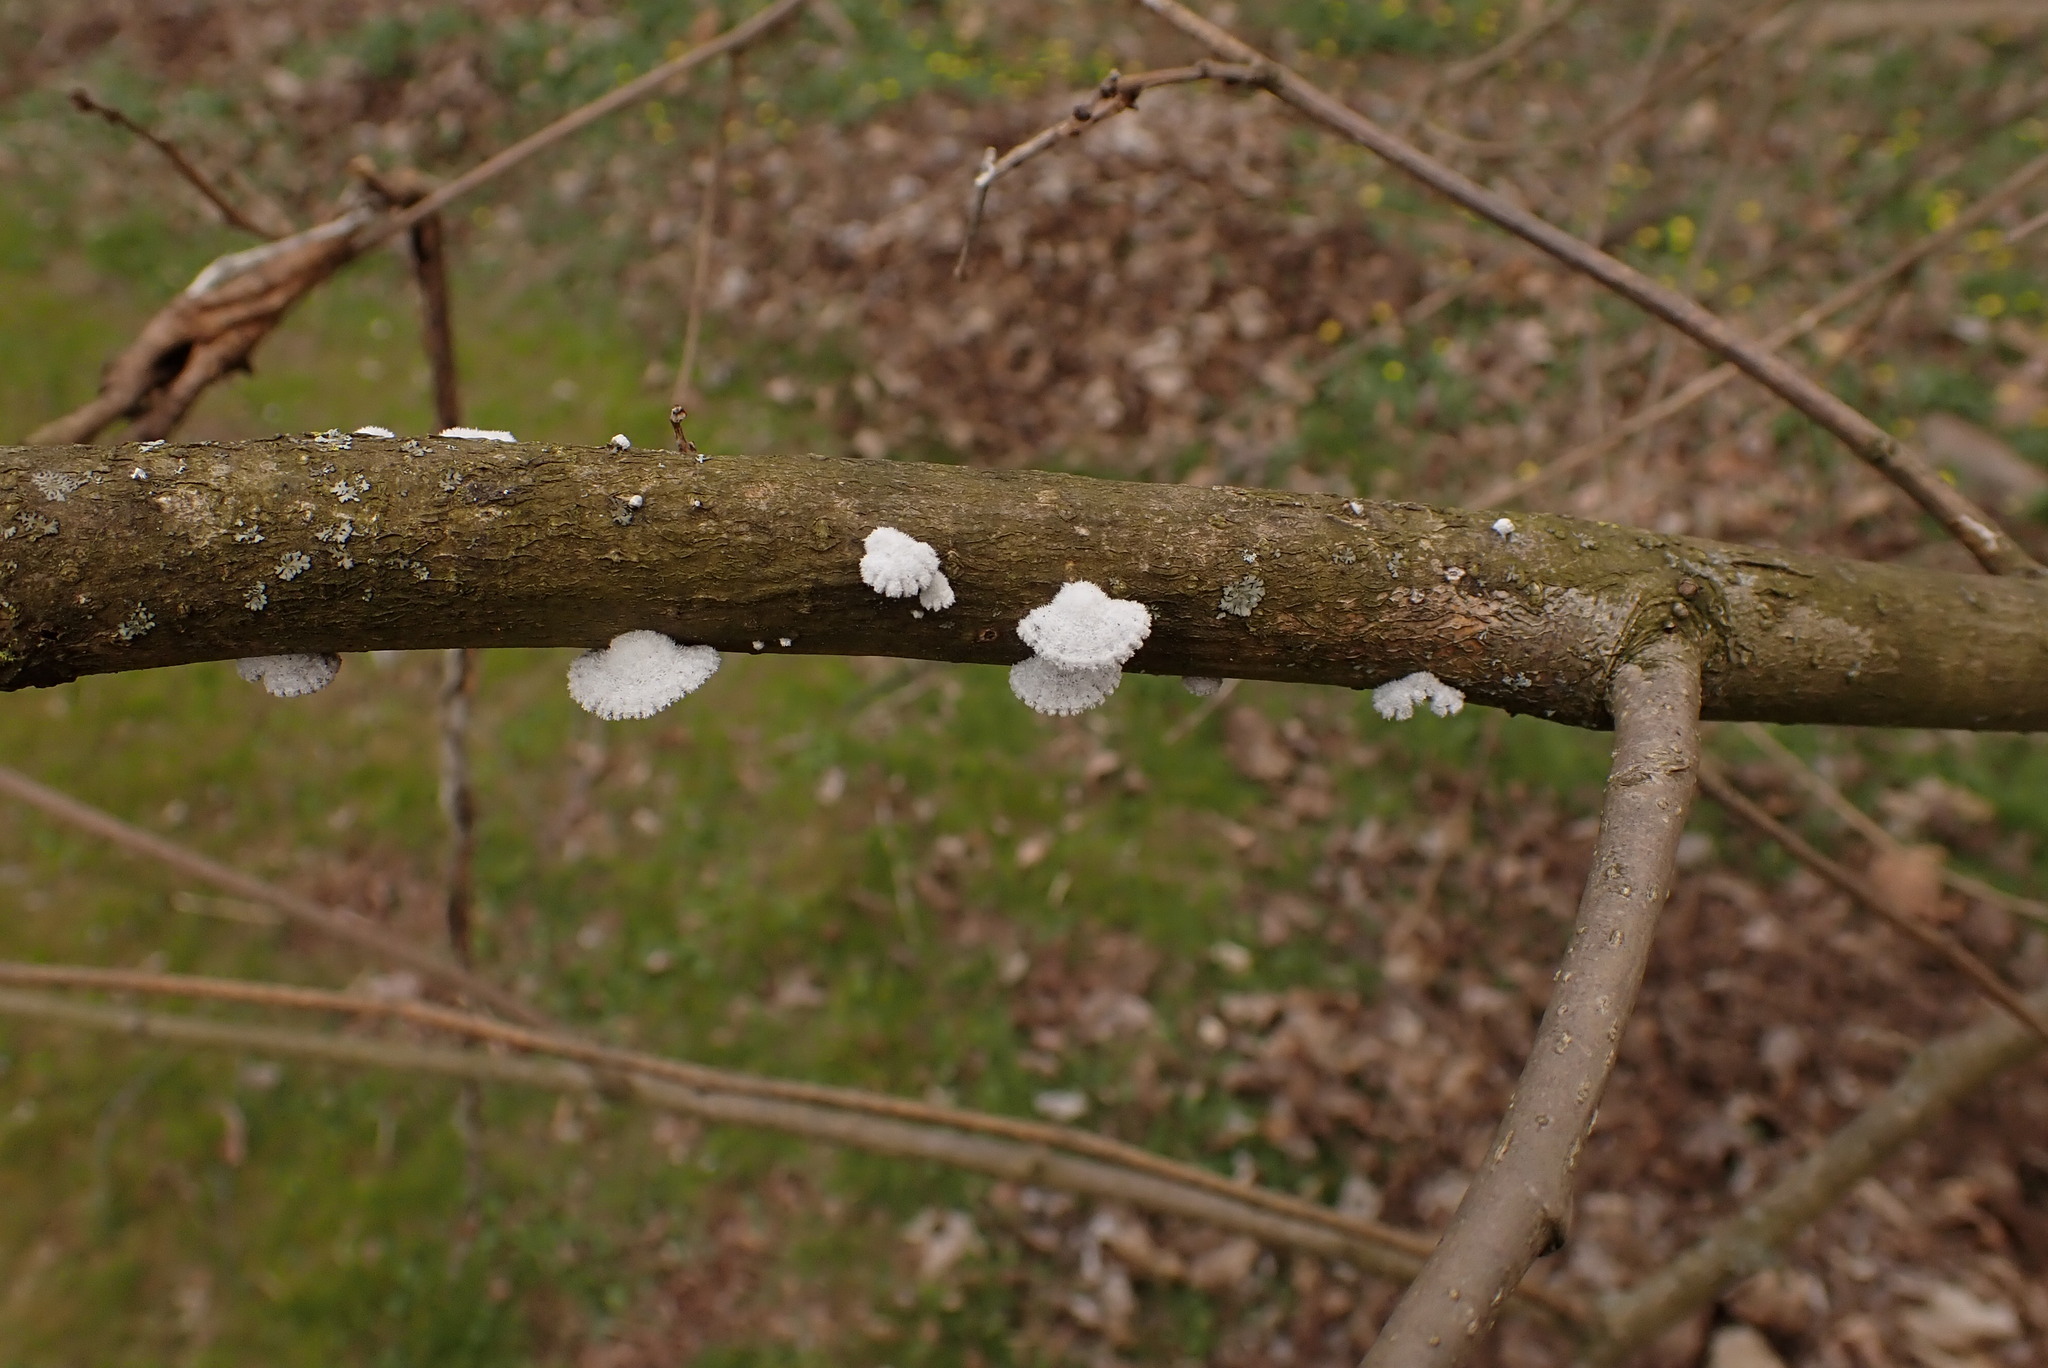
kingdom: Fungi
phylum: Basidiomycota
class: Agaricomycetes
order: Agaricales
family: Schizophyllaceae
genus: Schizophyllum
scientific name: Schizophyllum commune
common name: Common porecrust
